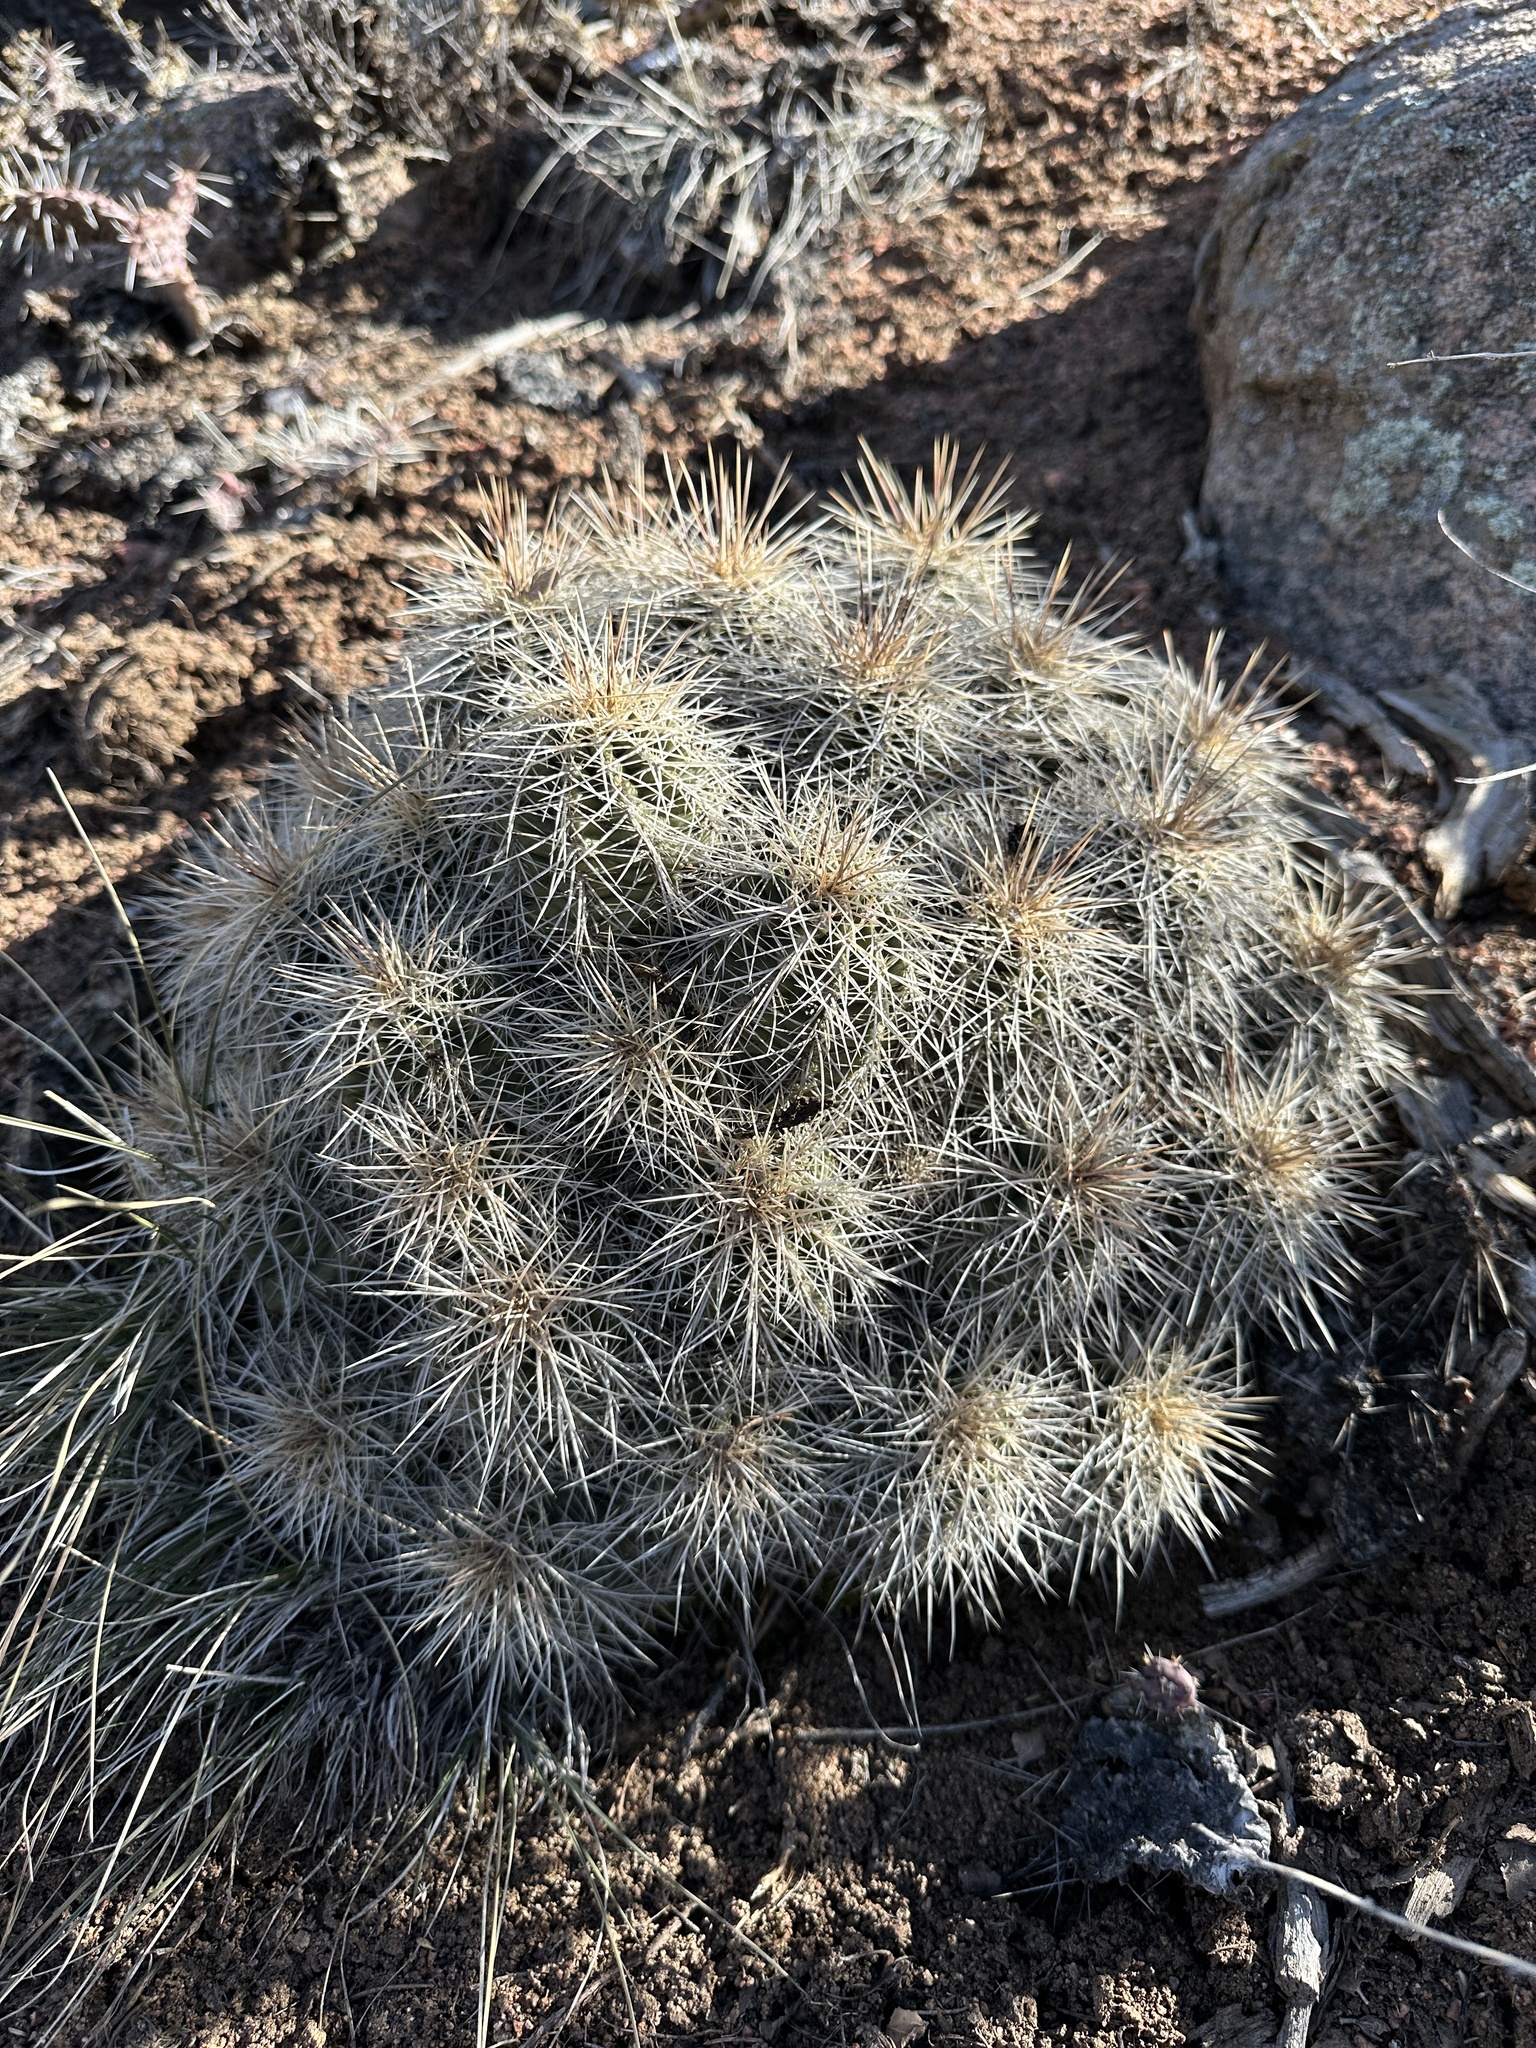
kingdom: Plantae
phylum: Tracheophyta
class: Magnoliopsida
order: Caryophyllales
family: Cactaceae
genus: Echinocereus
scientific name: Echinocereus coccineus
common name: Scarlet hedgehog cactus
